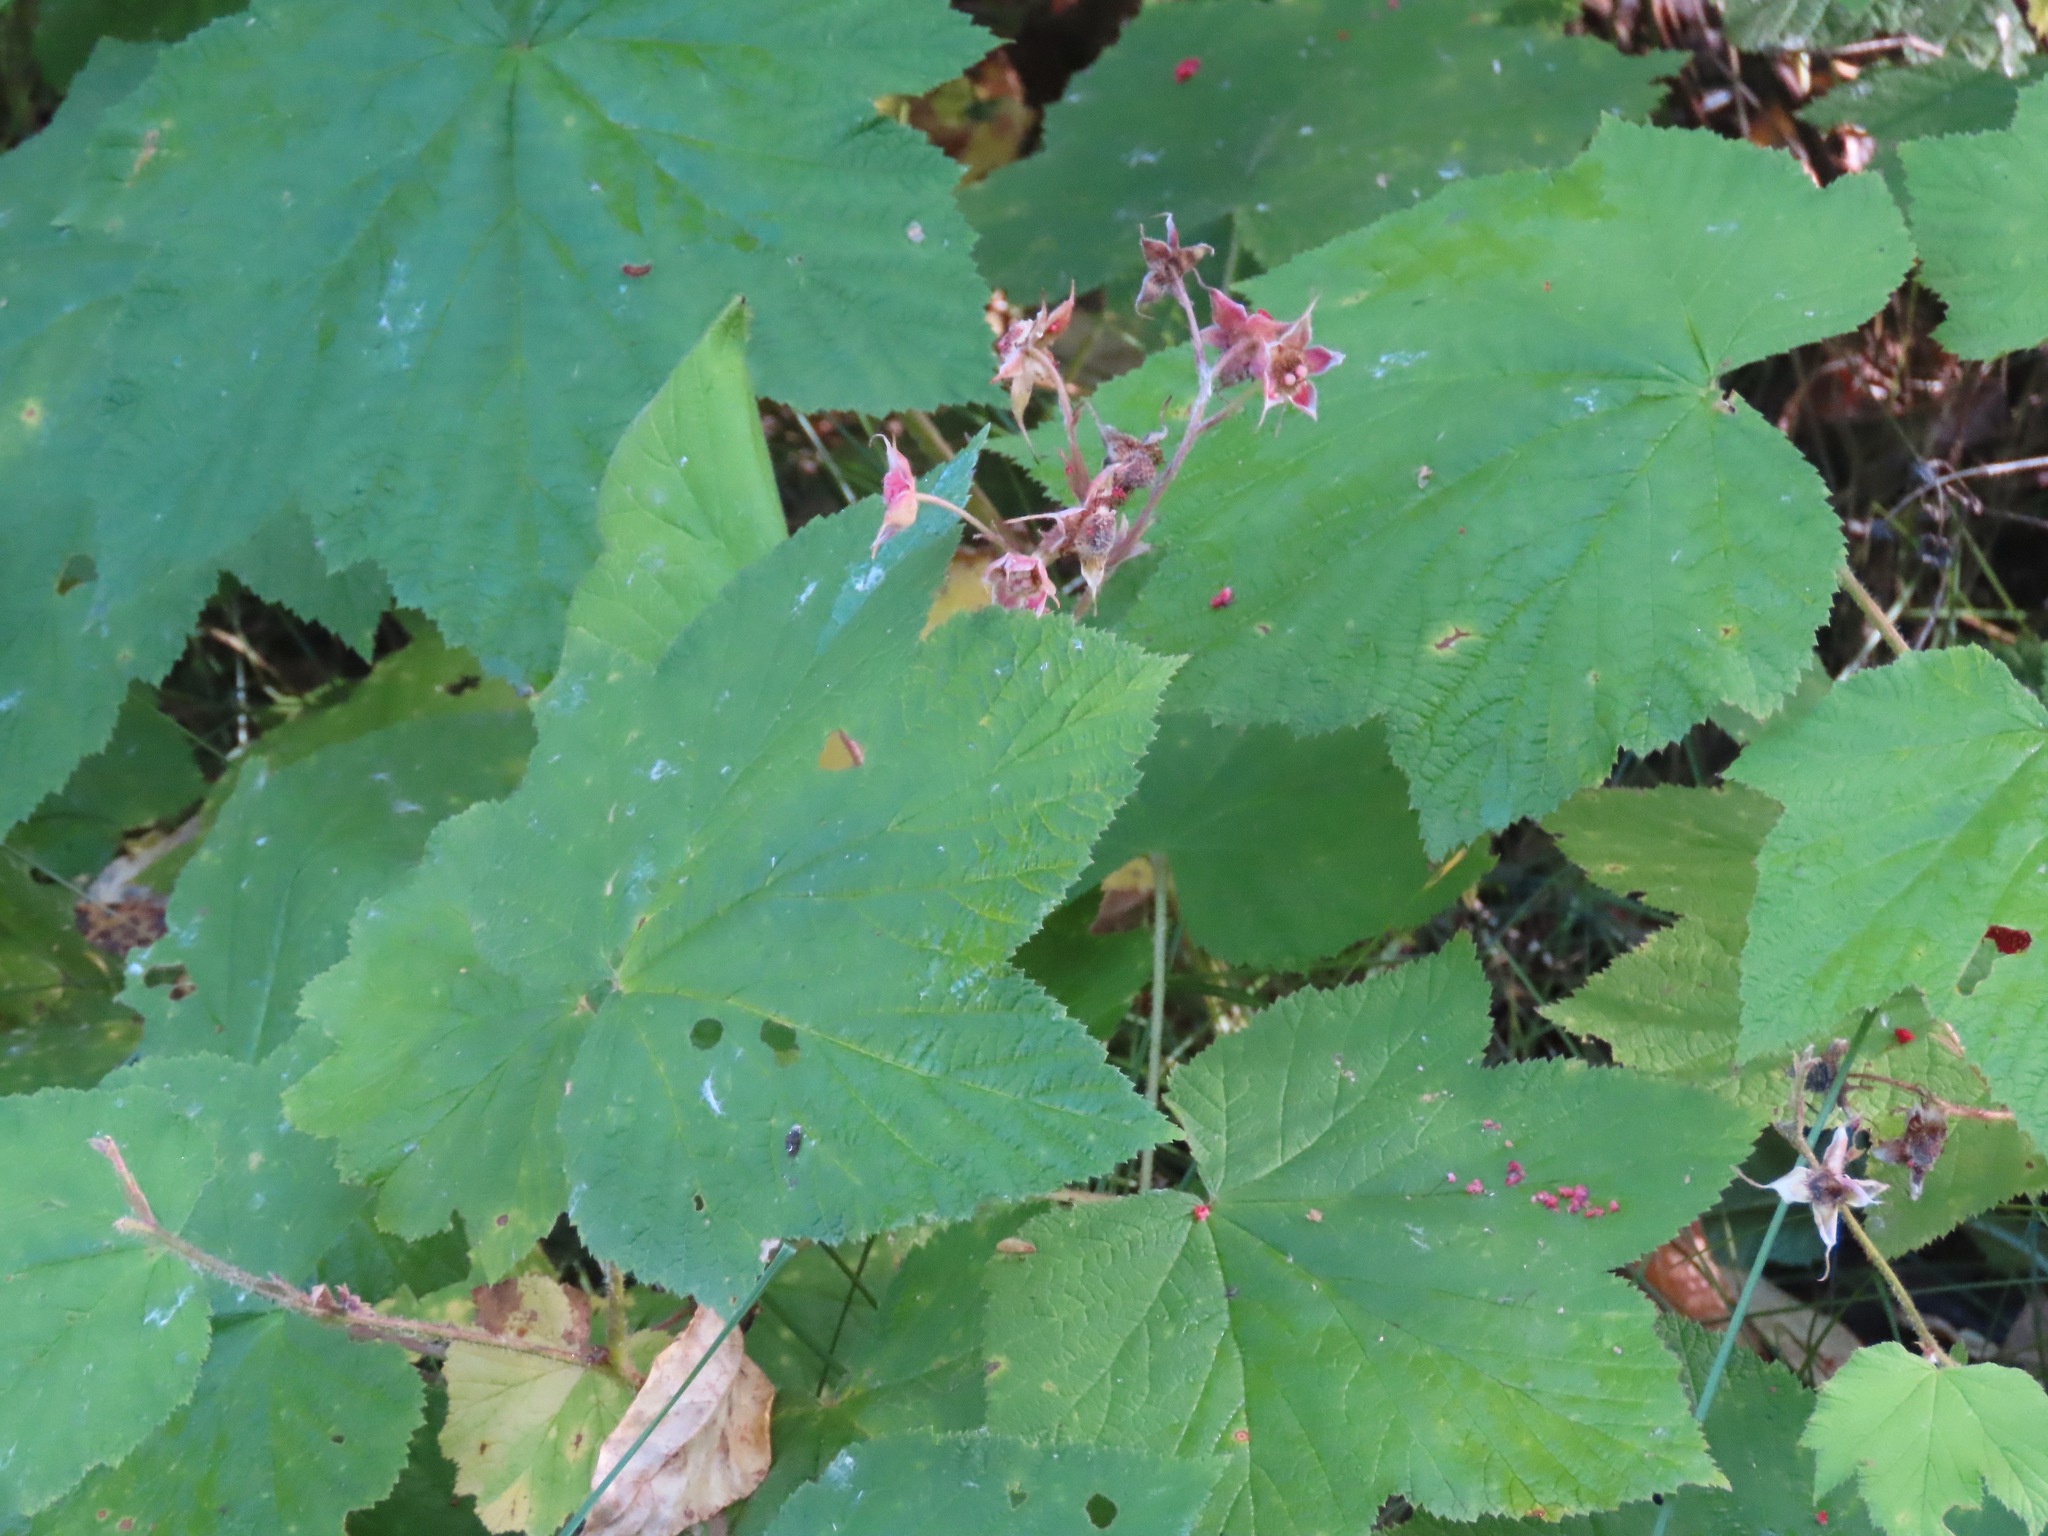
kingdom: Plantae
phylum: Tracheophyta
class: Magnoliopsida
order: Rosales
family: Rosaceae
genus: Rubus
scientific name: Rubus parviflorus
